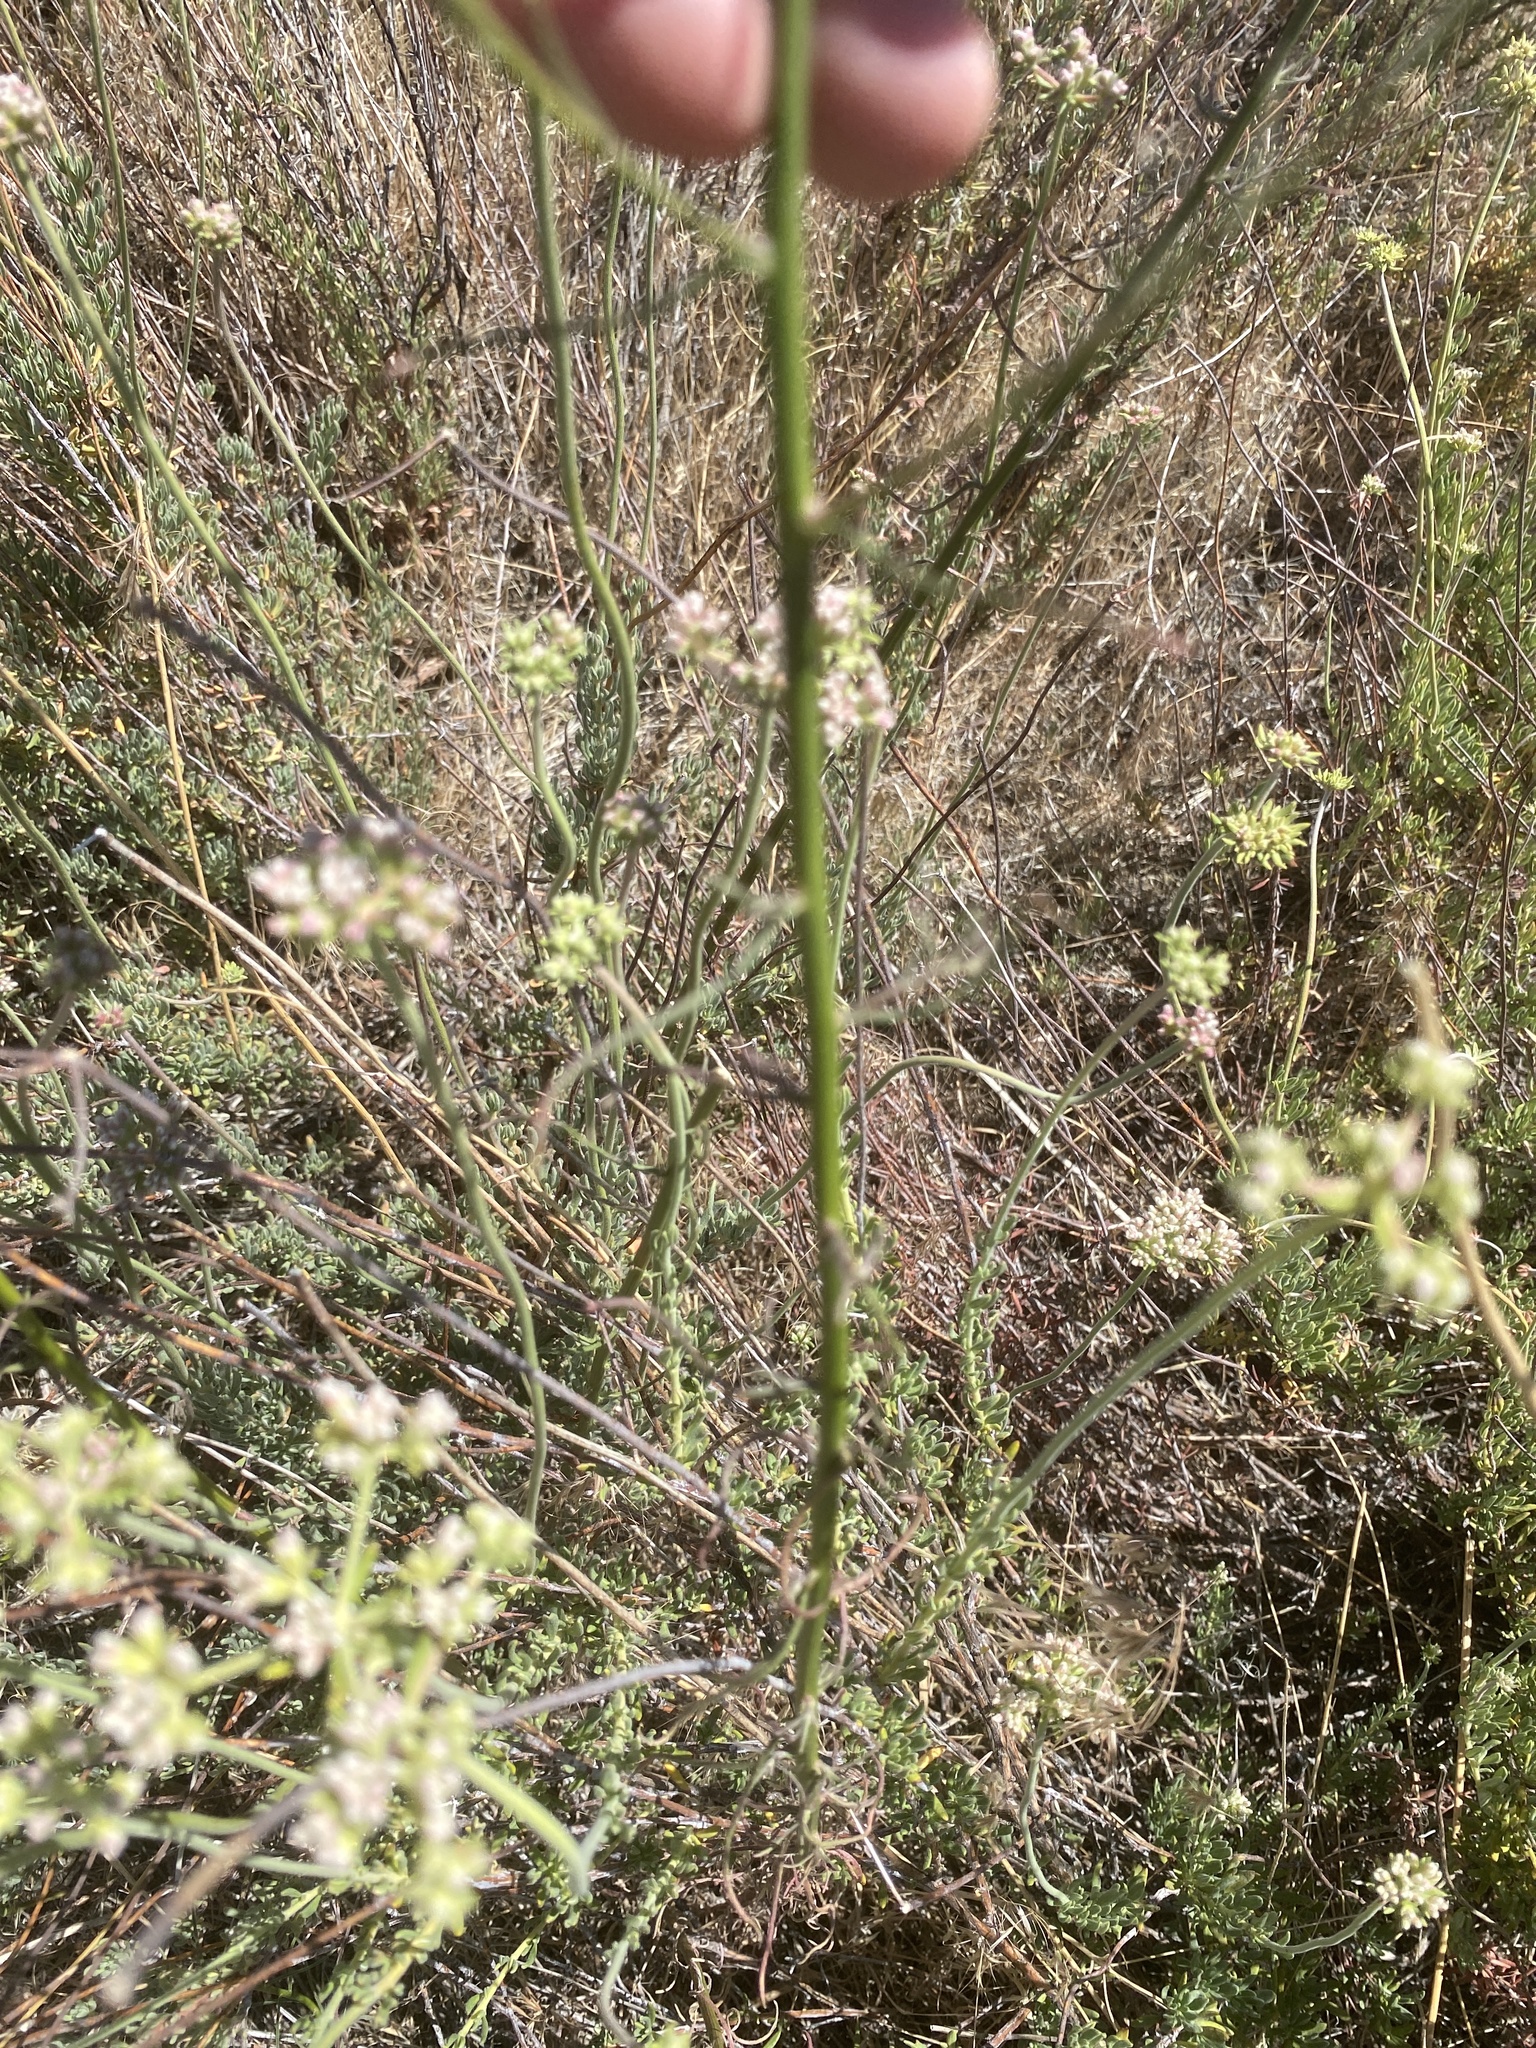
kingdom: Plantae
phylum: Tracheophyta
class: Magnoliopsida
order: Asterales
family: Asteraceae
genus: Erigeron
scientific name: Erigeron foliosus
